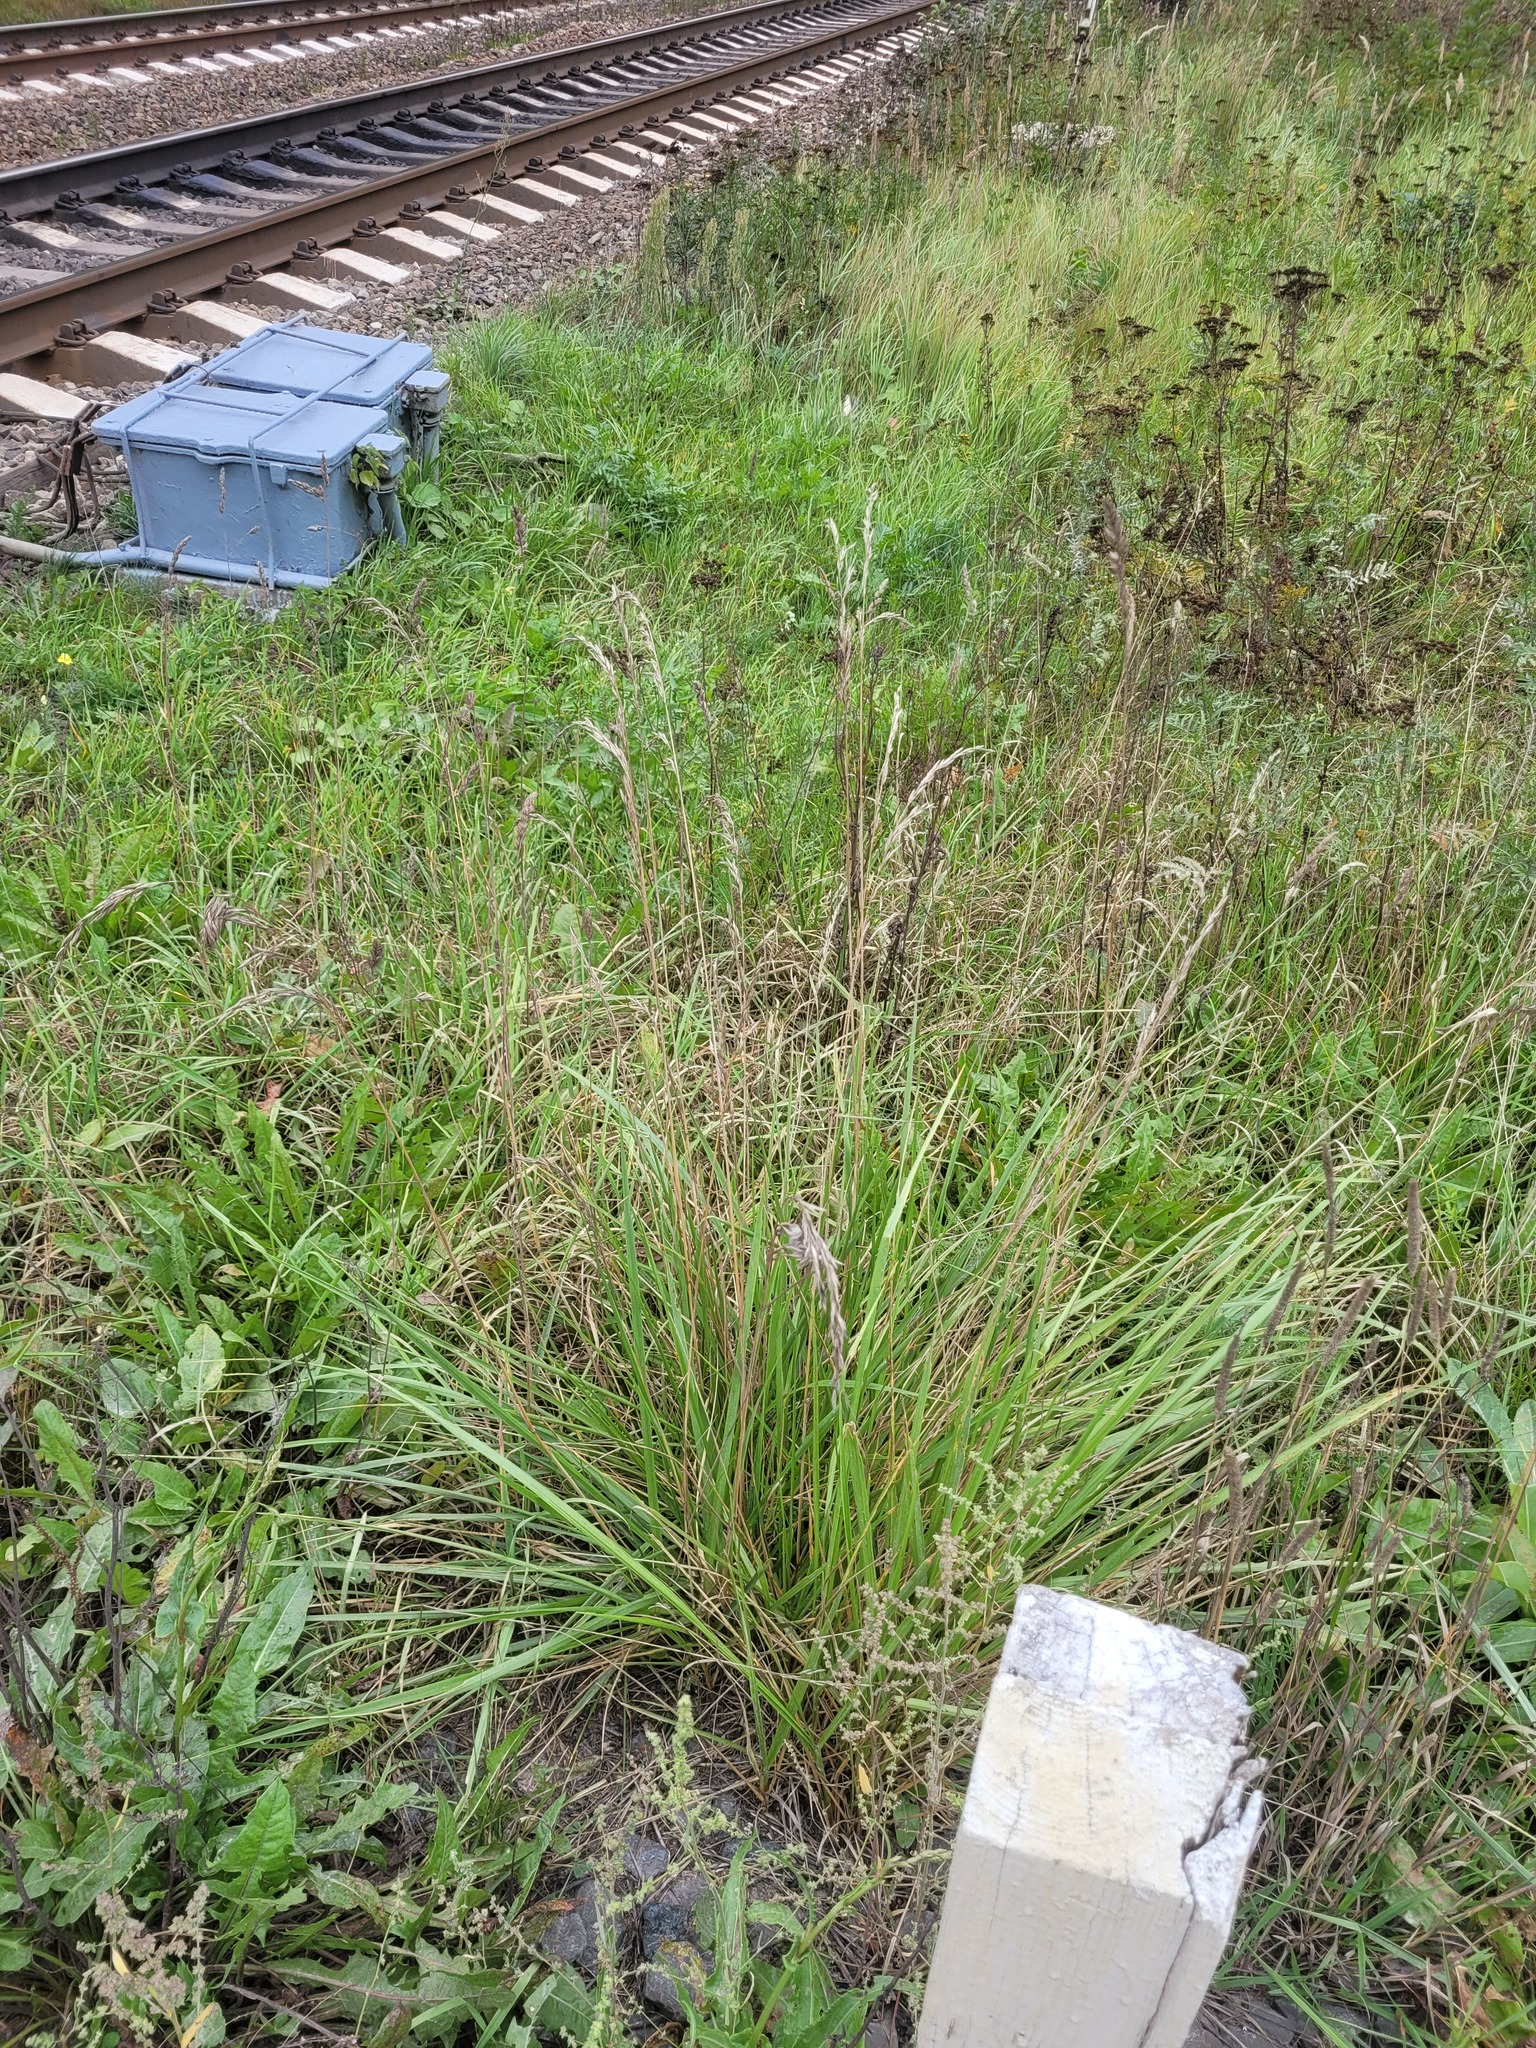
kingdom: Plantae
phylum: Tracheophyta
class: Liliopsida
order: Poales
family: Poaceae
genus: Lolium
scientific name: Lolium arundinaceum
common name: Reed fescue
